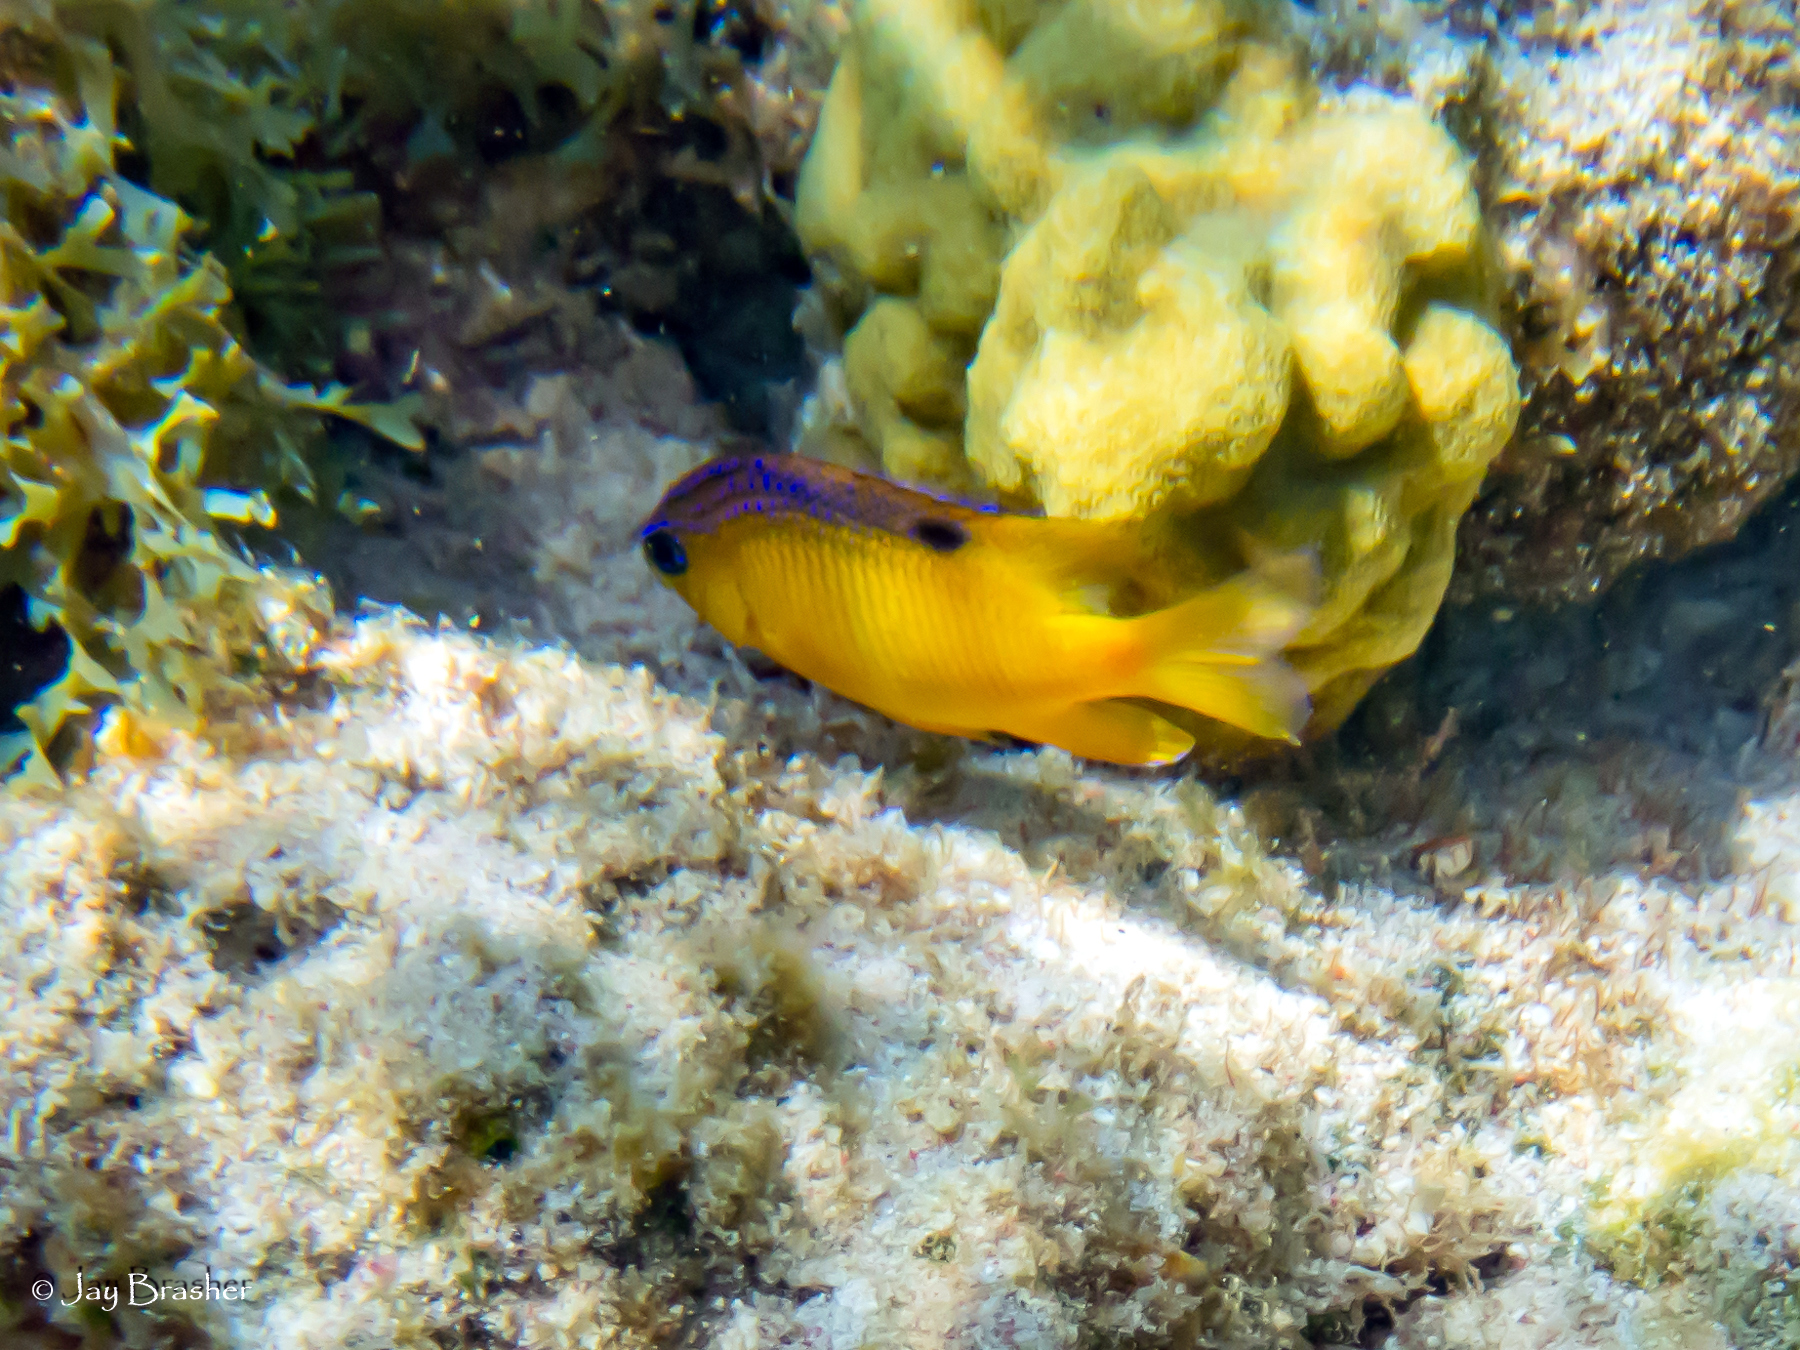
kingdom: Animalia
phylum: Cnidaria
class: Anthozoa
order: Scleractinia
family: Poritidae
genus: Porites
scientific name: Porites astreoides
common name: Mustard hill coral
